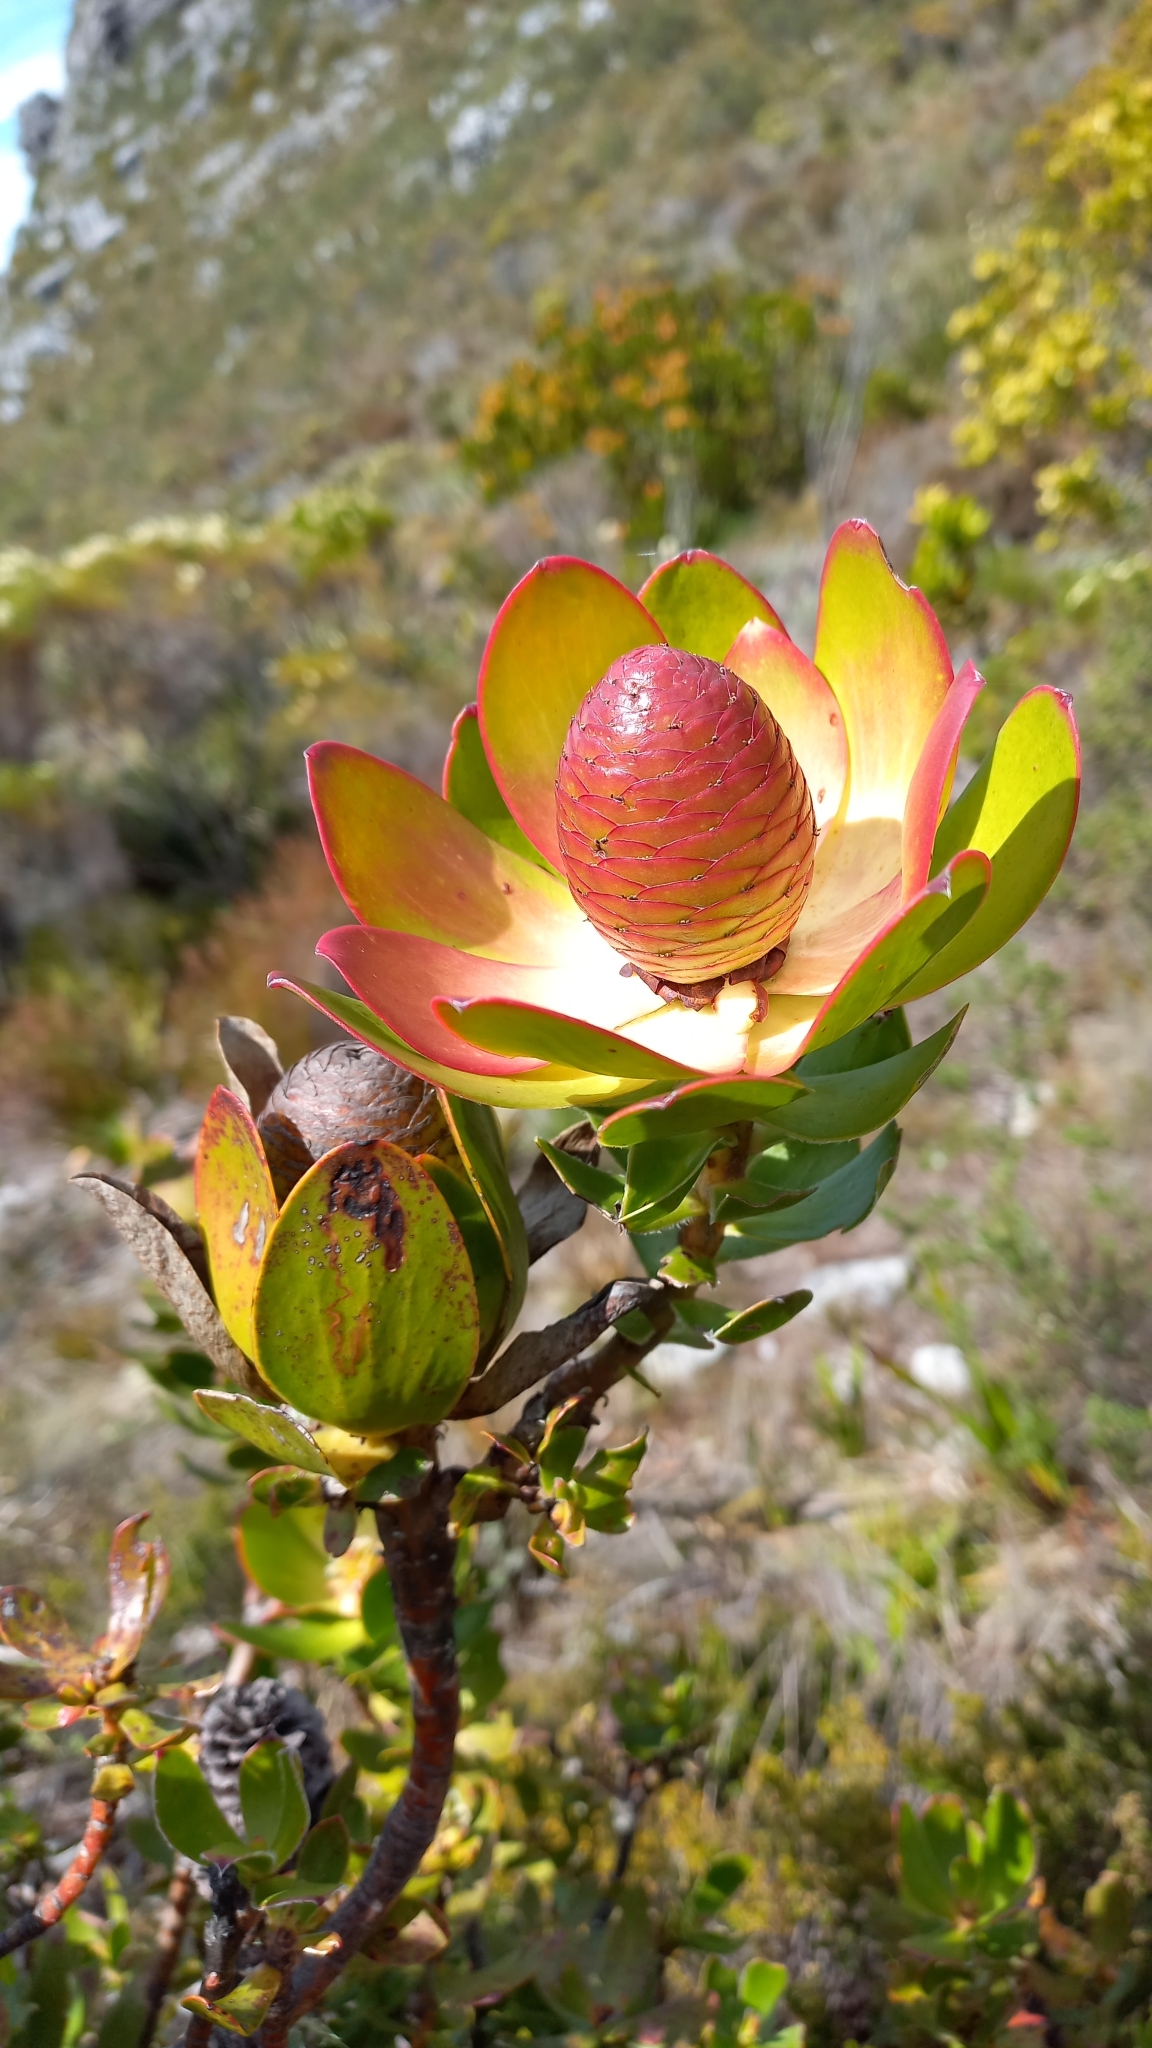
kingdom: Plantae
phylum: Tracheophyta
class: Magnoliopsida
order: Proteales
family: Proteaceae
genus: Leucadendron
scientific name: Leucadendron strobilinum
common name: Mountain rose
